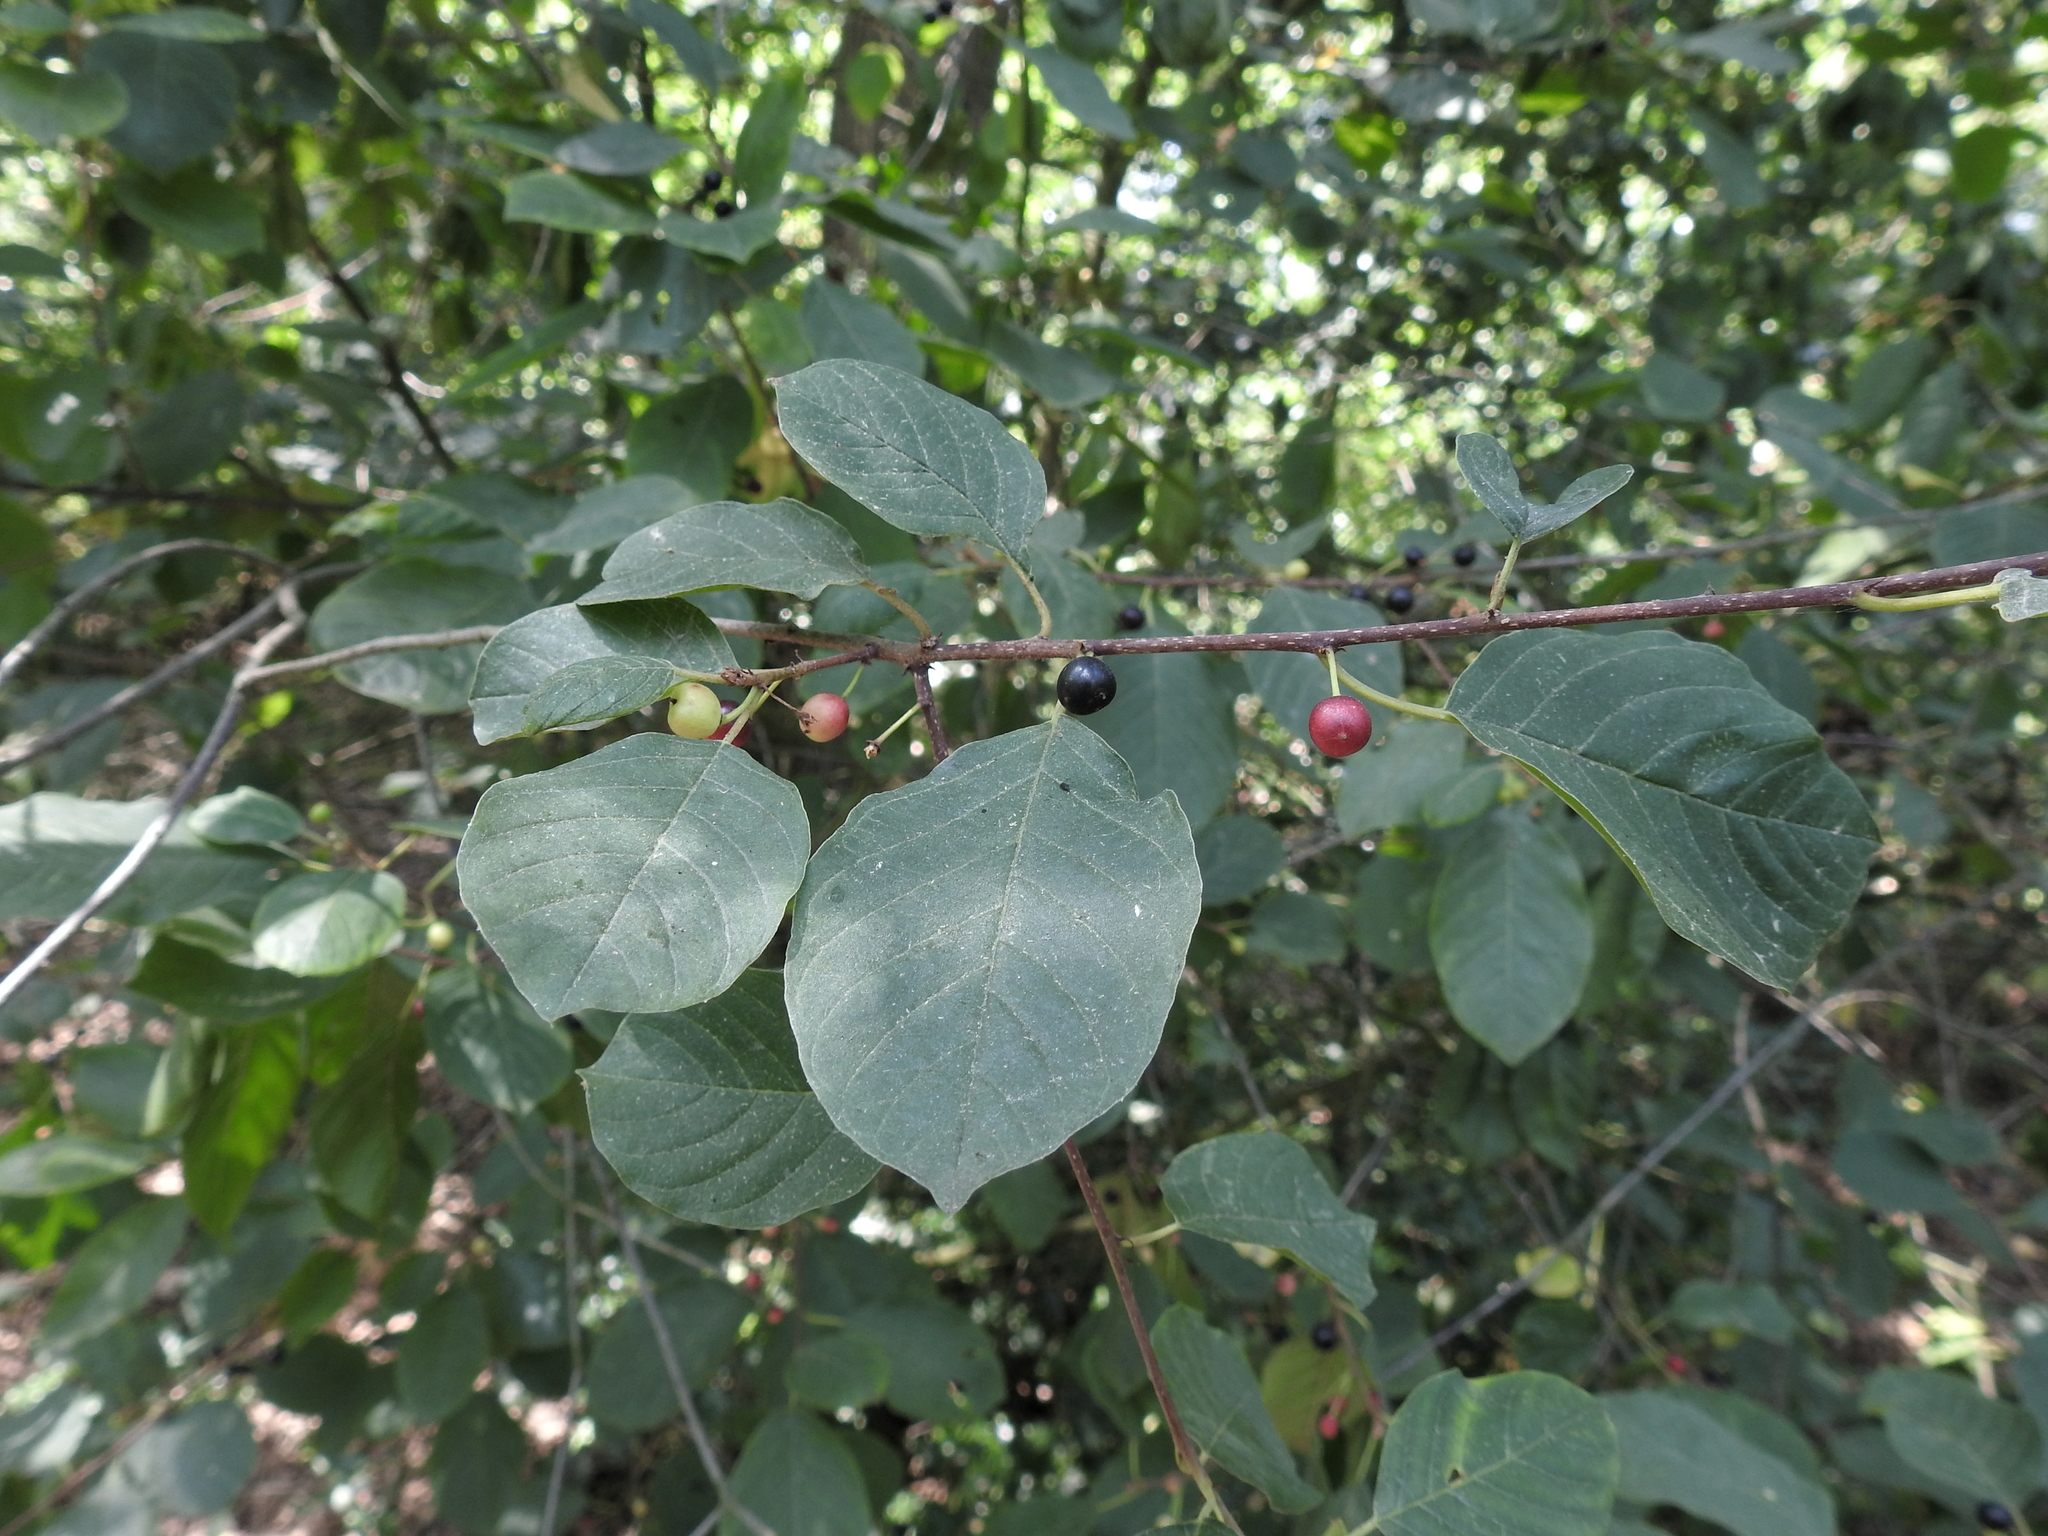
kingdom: Plantae
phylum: Tracheophyta
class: Magnoliopsida
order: Rosales
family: Rhamnaceae
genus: Frangula
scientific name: Frangula alnus
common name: Alder buckthorn
